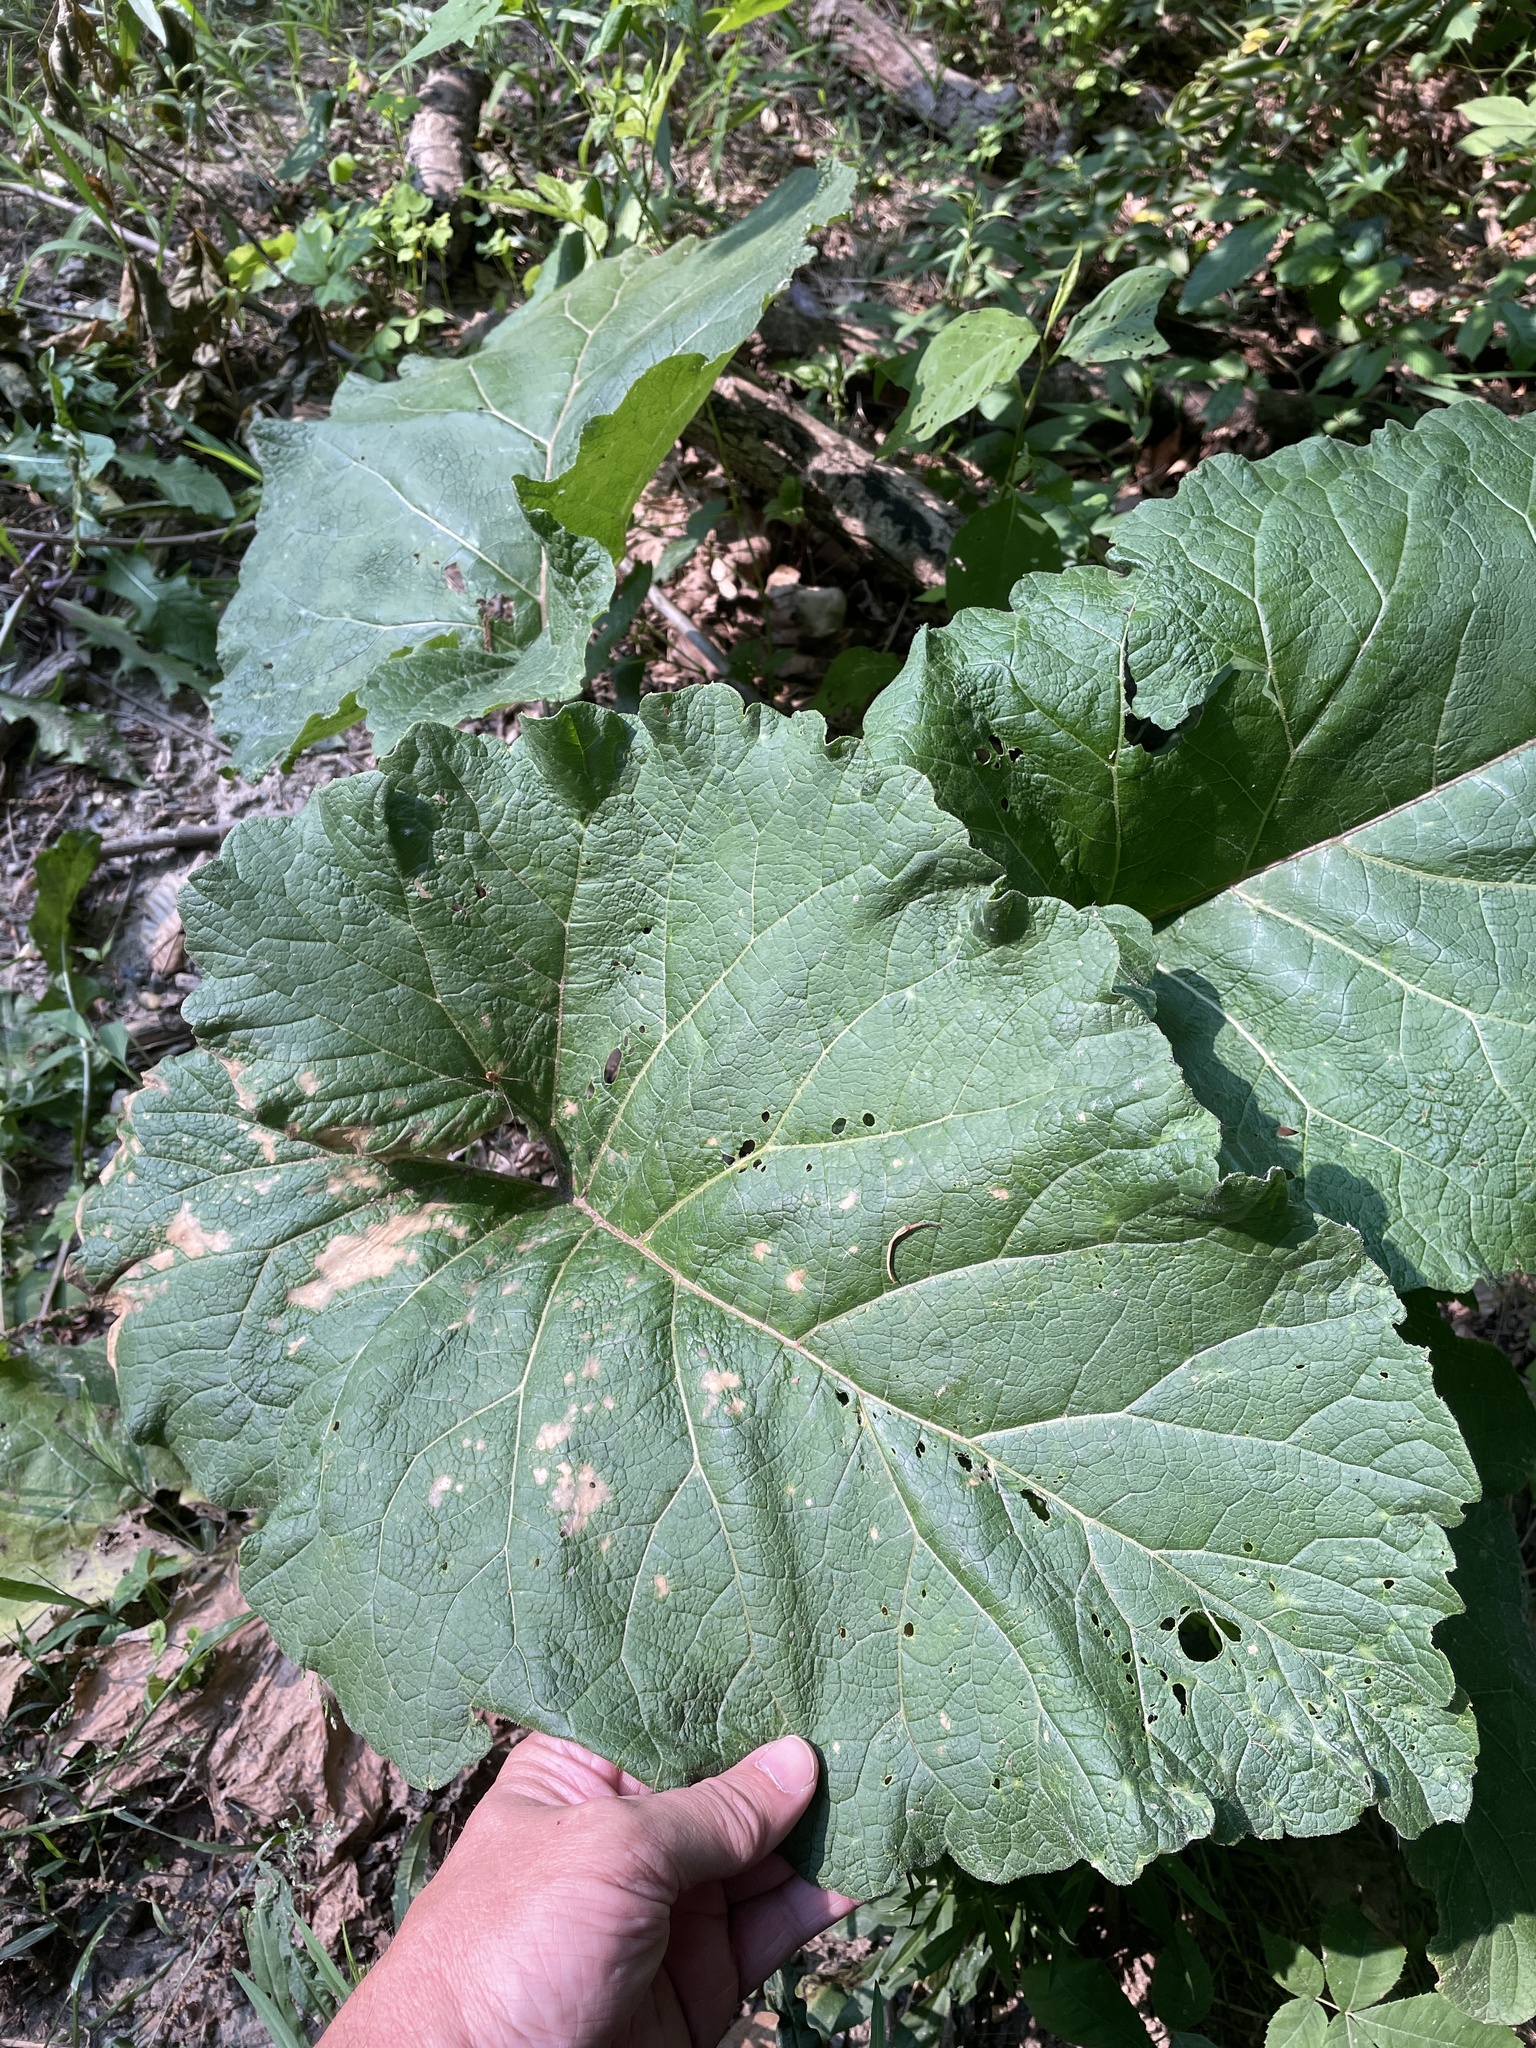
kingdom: Plantae
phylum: Tracheophyta
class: Magnoliopsida
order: Asterales
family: Asteraceae
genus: Arctium
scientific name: Arctium lappa
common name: Greater burdock
